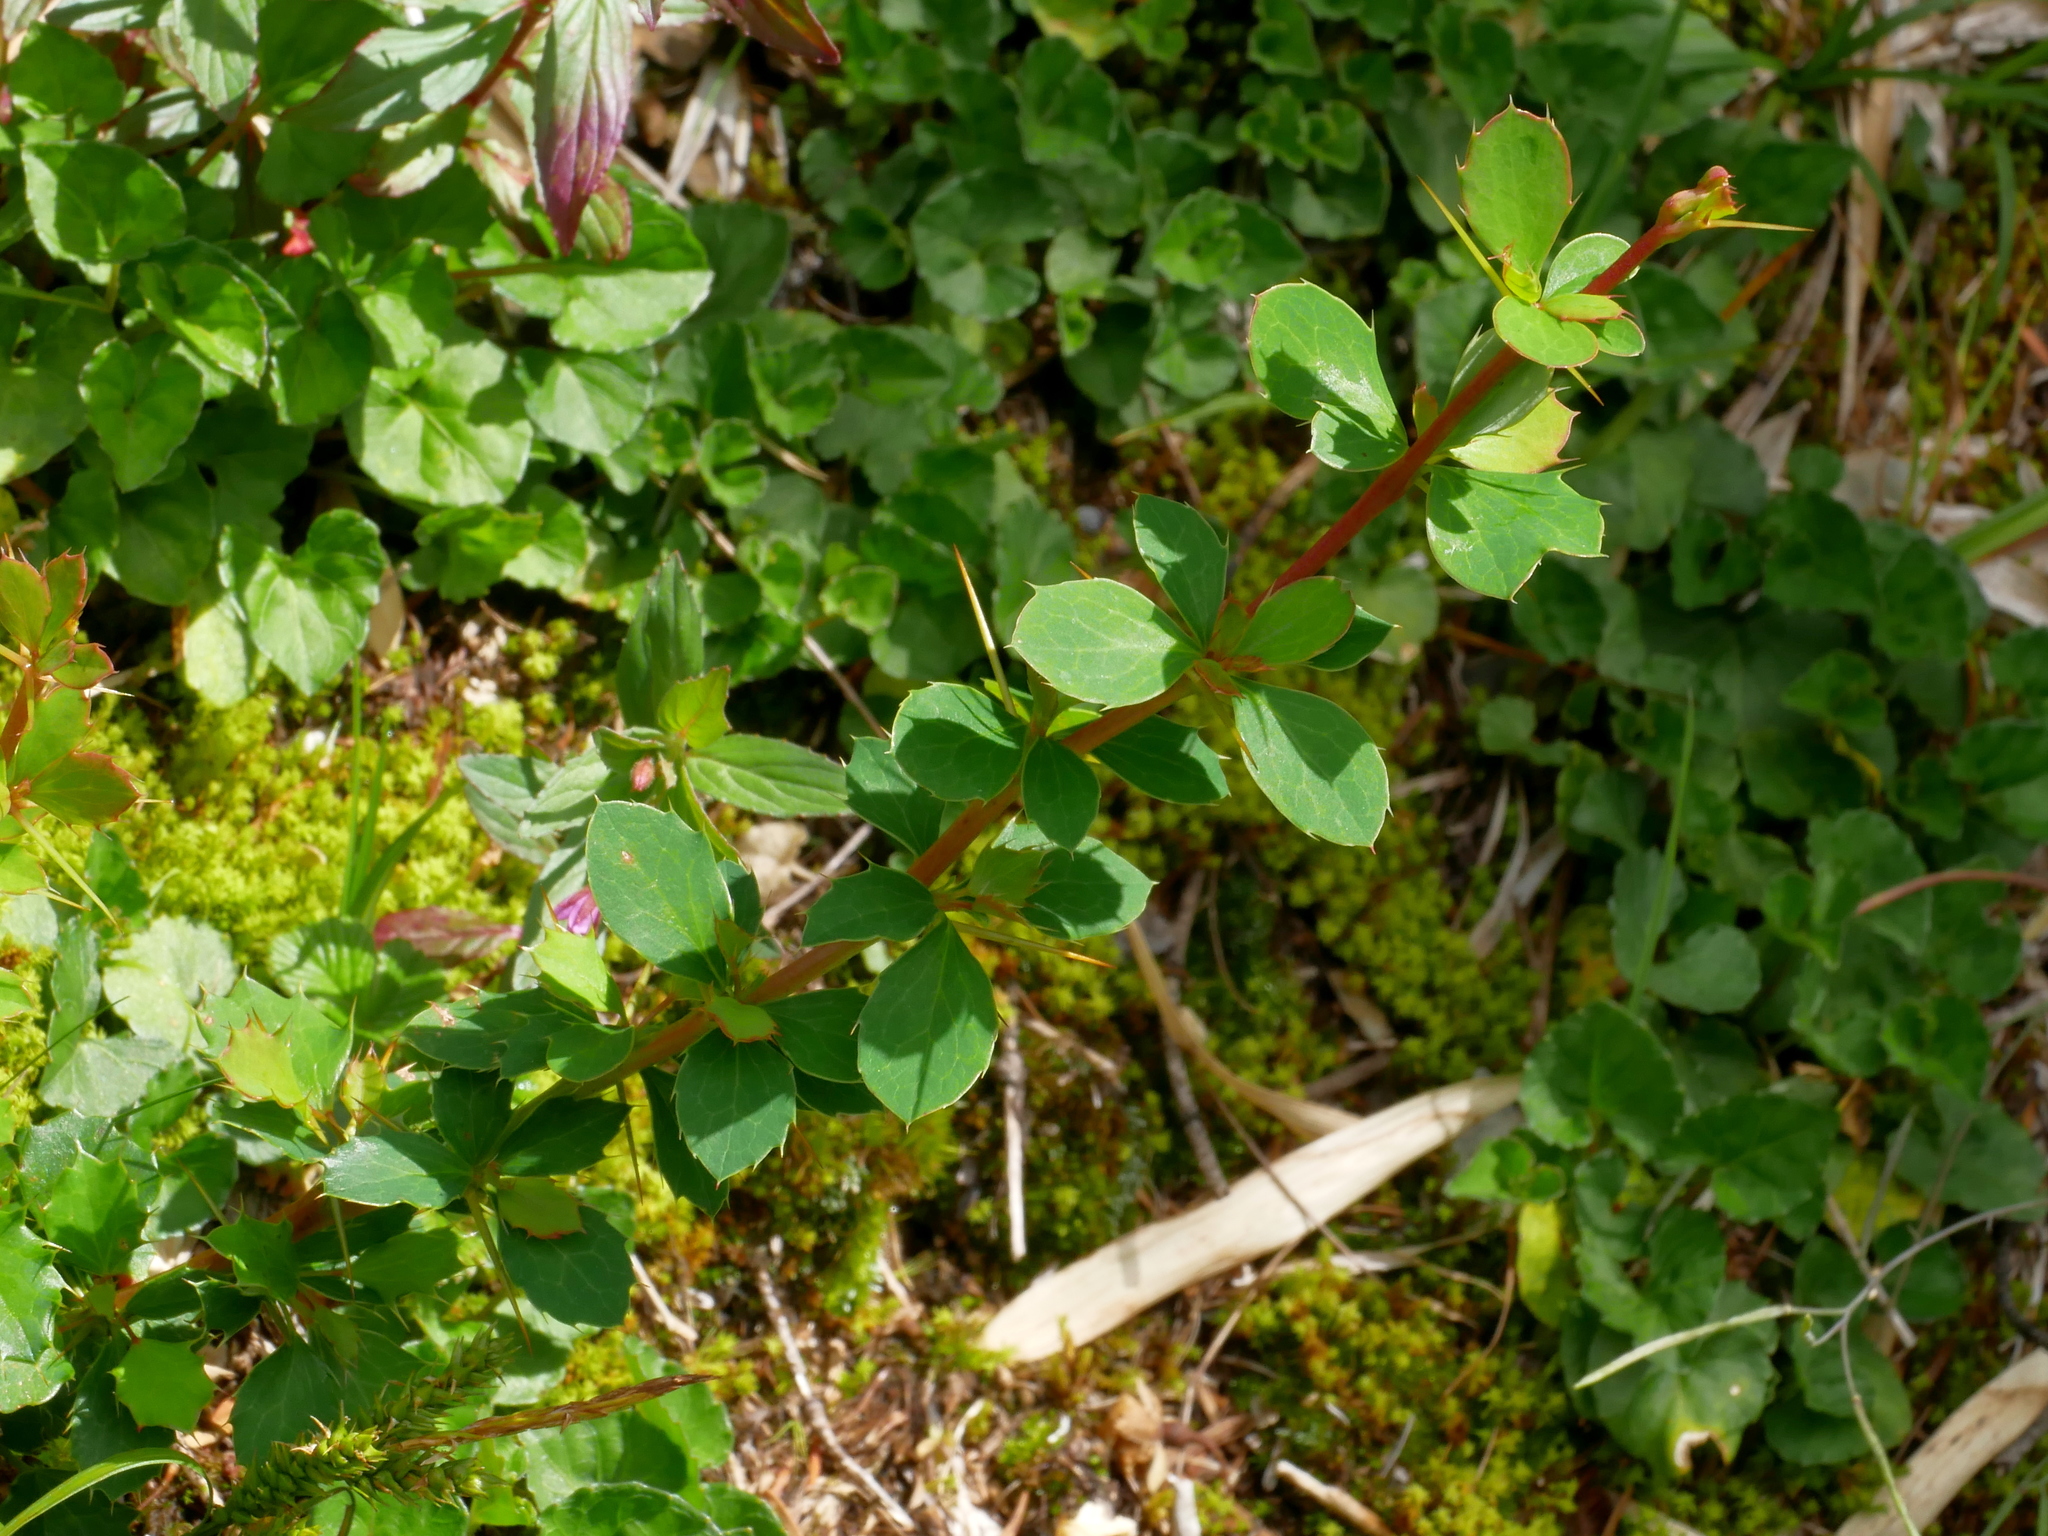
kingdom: Plantae
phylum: Tracheophyta
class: Magnoliopsida
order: Ranunculales
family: Berberidaceae
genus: Berberis
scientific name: Berberis morrisonensis
